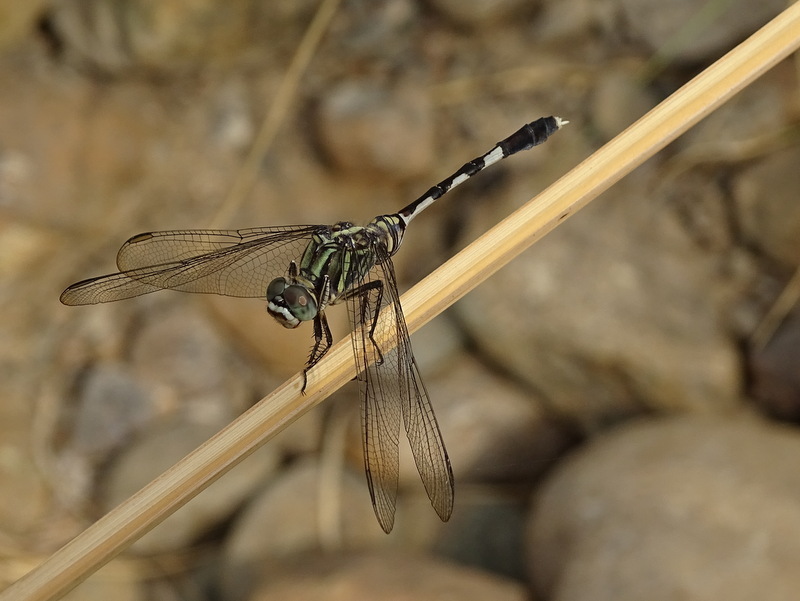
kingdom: Animalia
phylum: Arthropoda
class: Insecta
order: Odonata
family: Libellulidae
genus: Orthetrum
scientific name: Orthetrum sabina
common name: Slender skimmer
